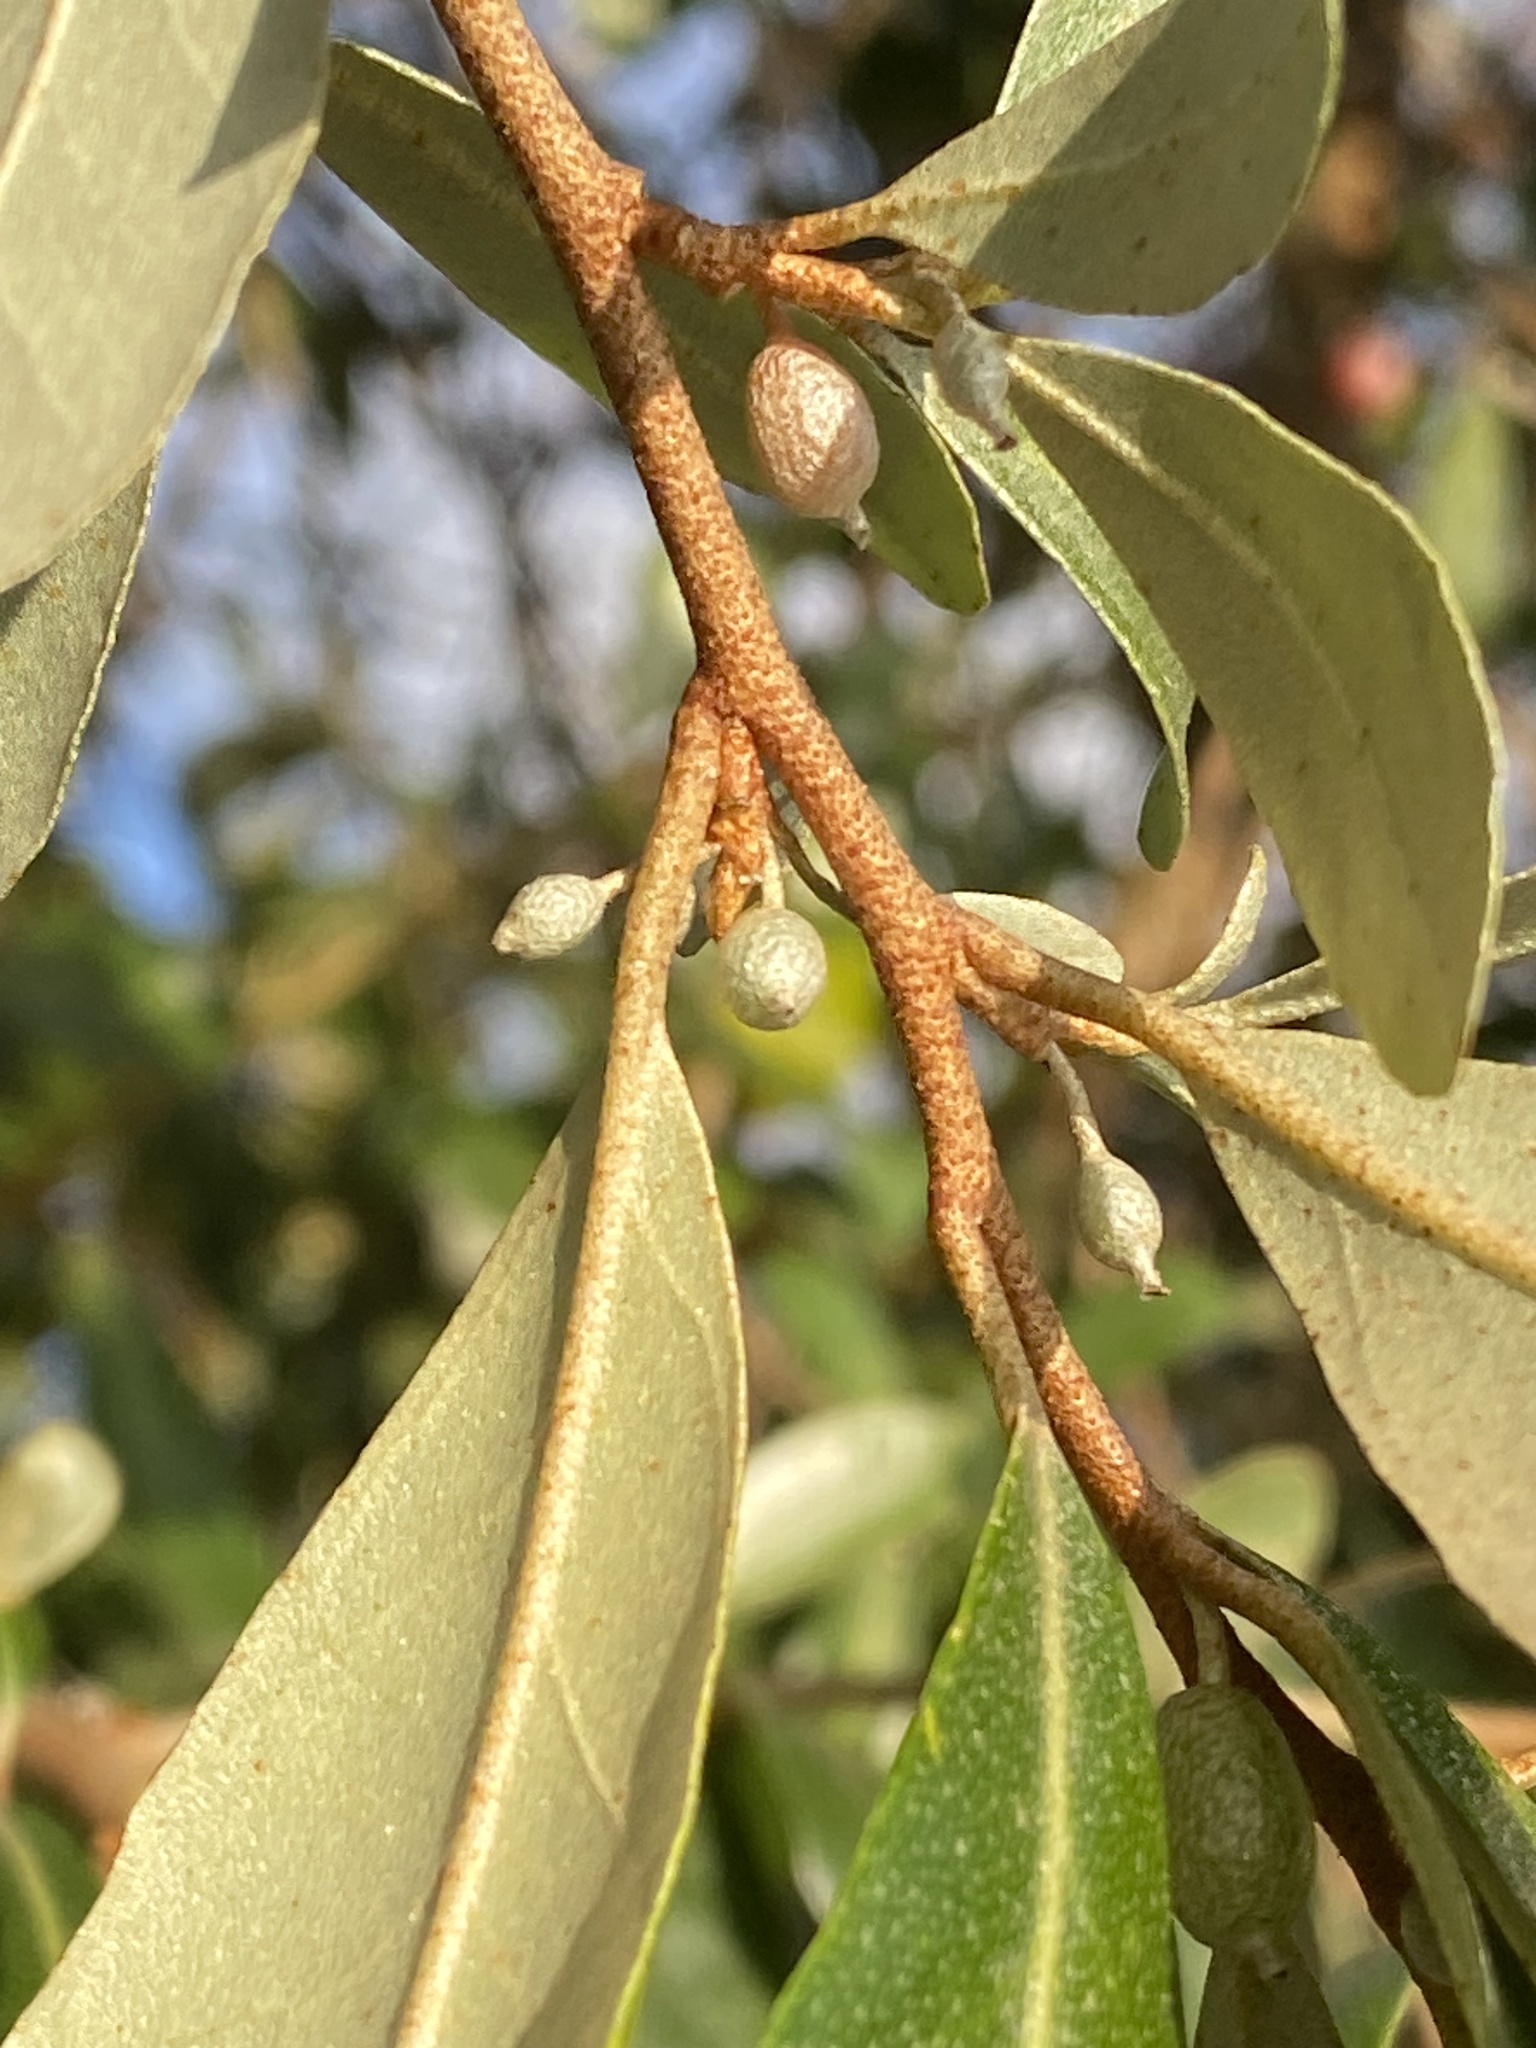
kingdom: Plantae
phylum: Tracheophyta
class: Magnoliopsida
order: Rosales
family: Elaeagnaceae
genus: Elaeagnus
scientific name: Elaeagnus oldhamii
